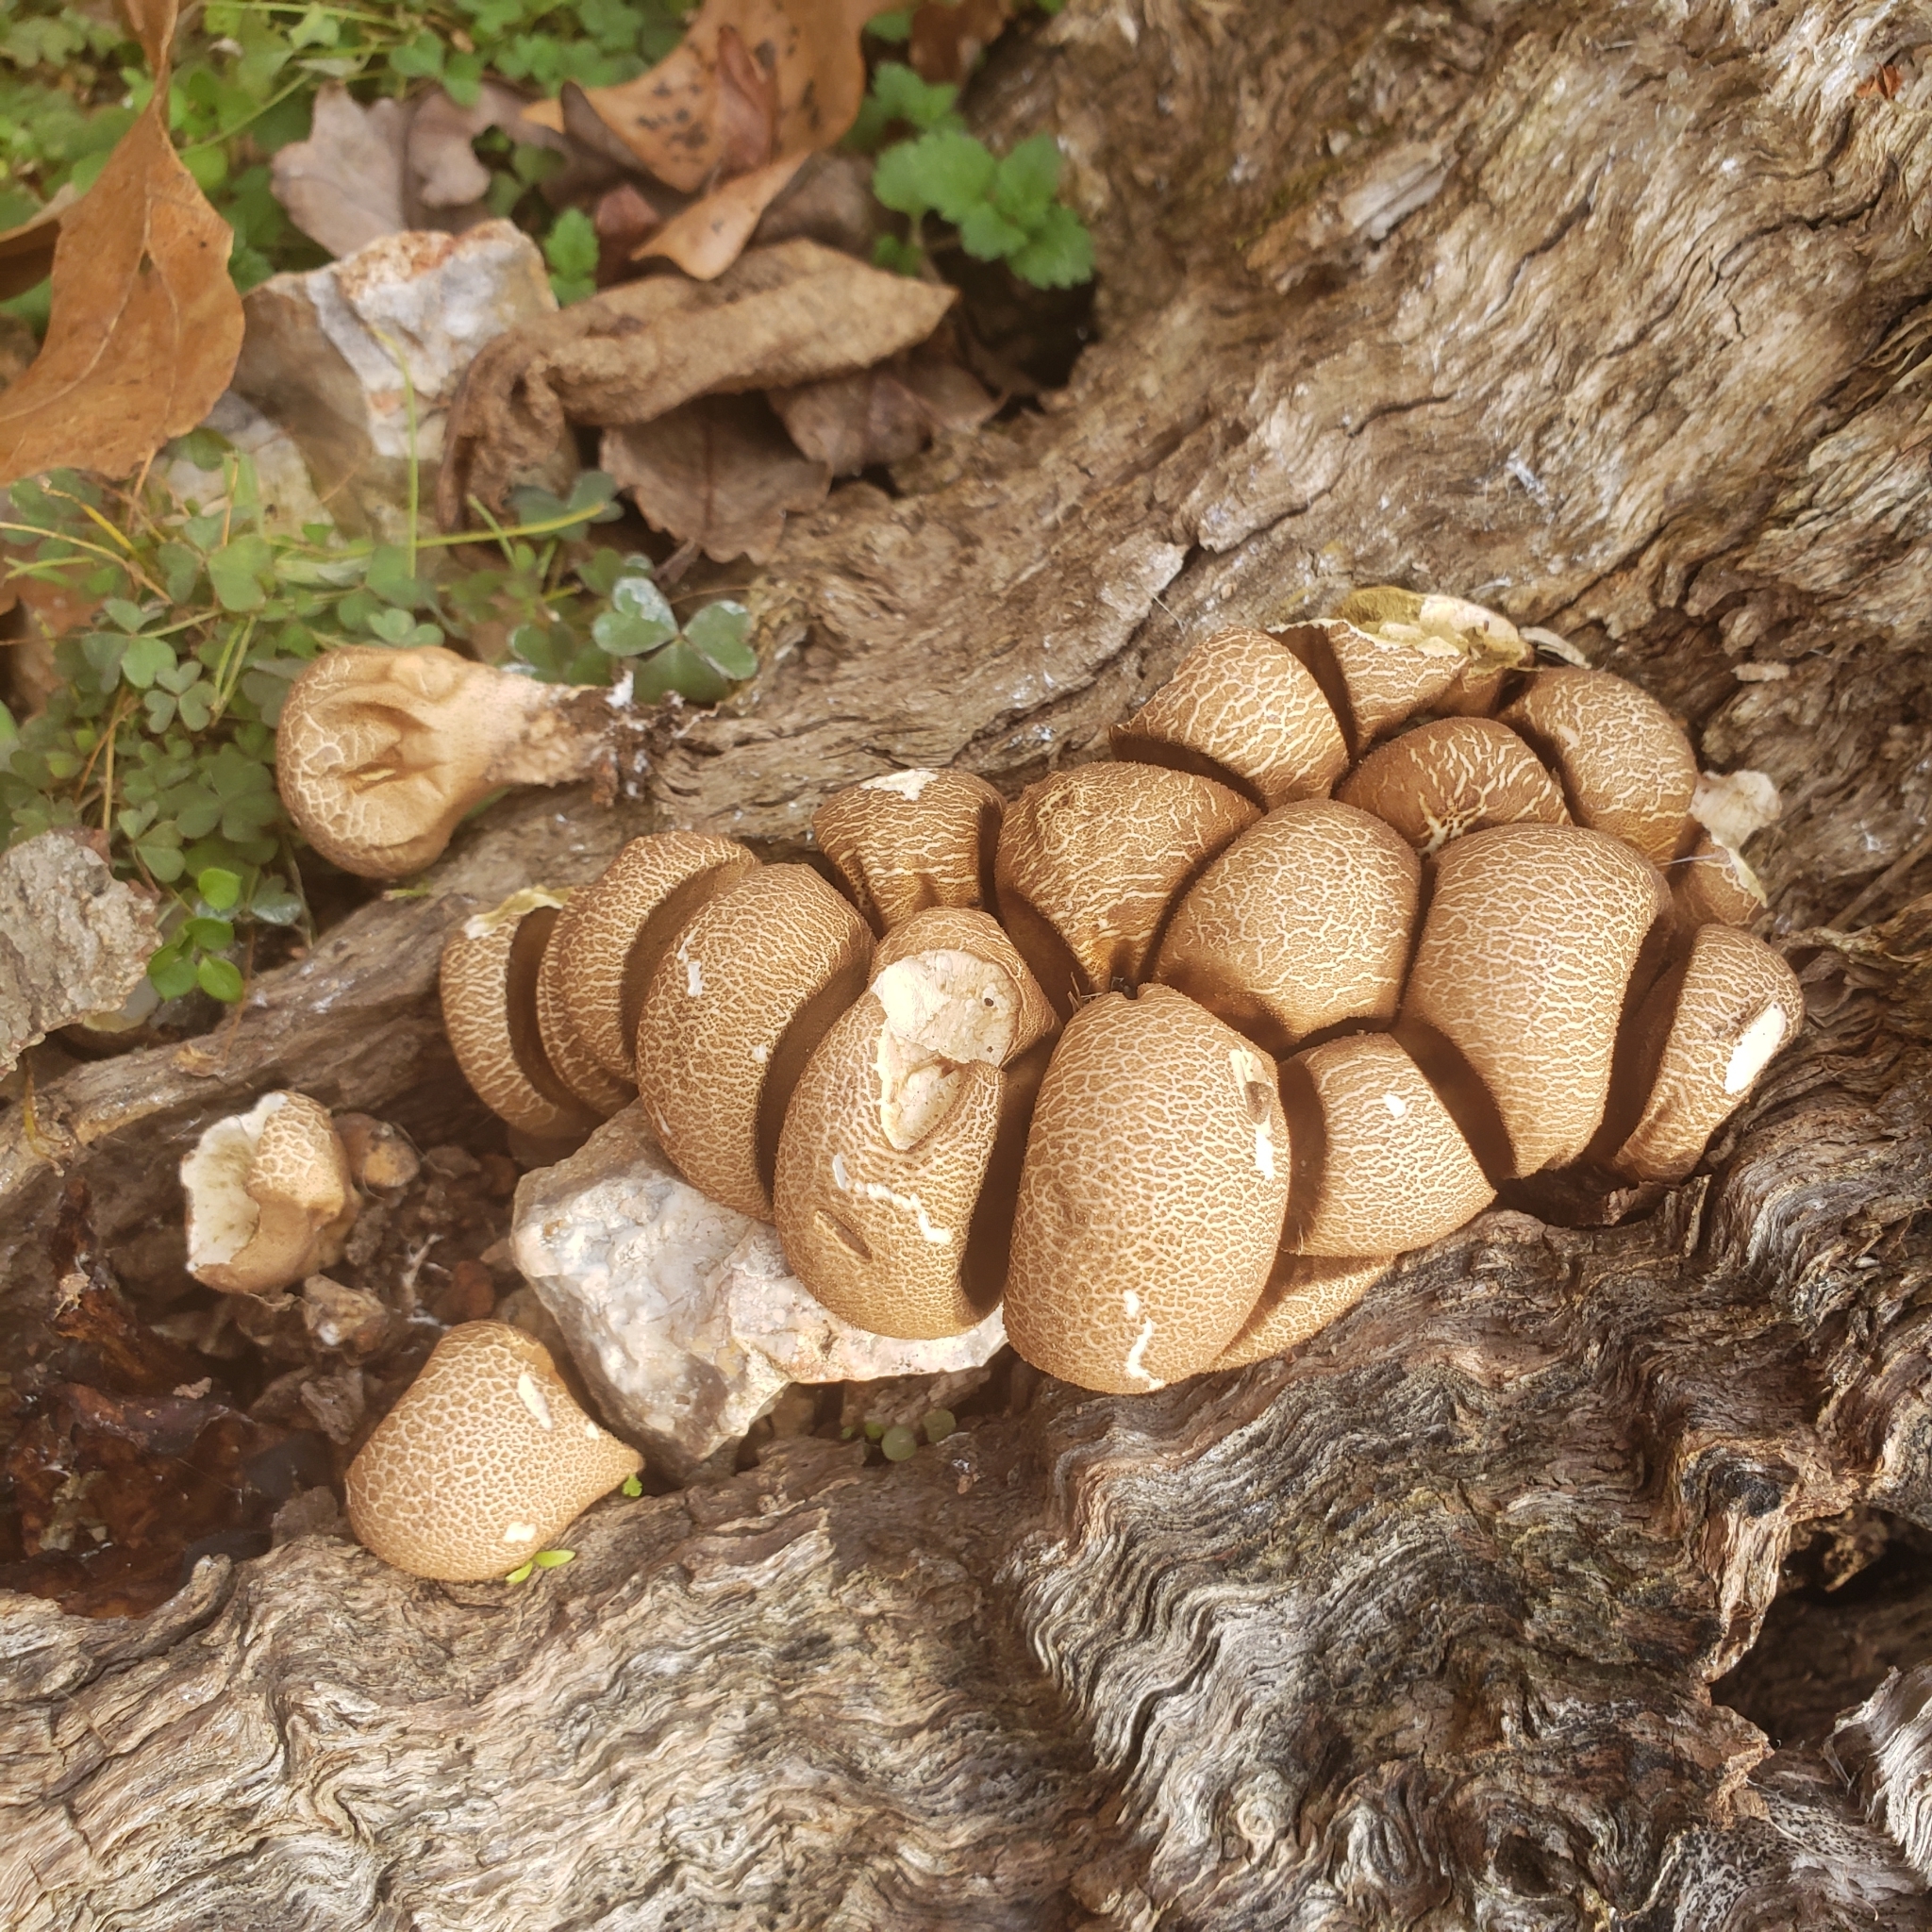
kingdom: Fungi
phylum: Basidiomycota
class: Agaricomycetes
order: Agaricales
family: Lycoperdaceae
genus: Apioperdon
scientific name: Apioperdon pyriforme
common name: Pear-shaped puffball
